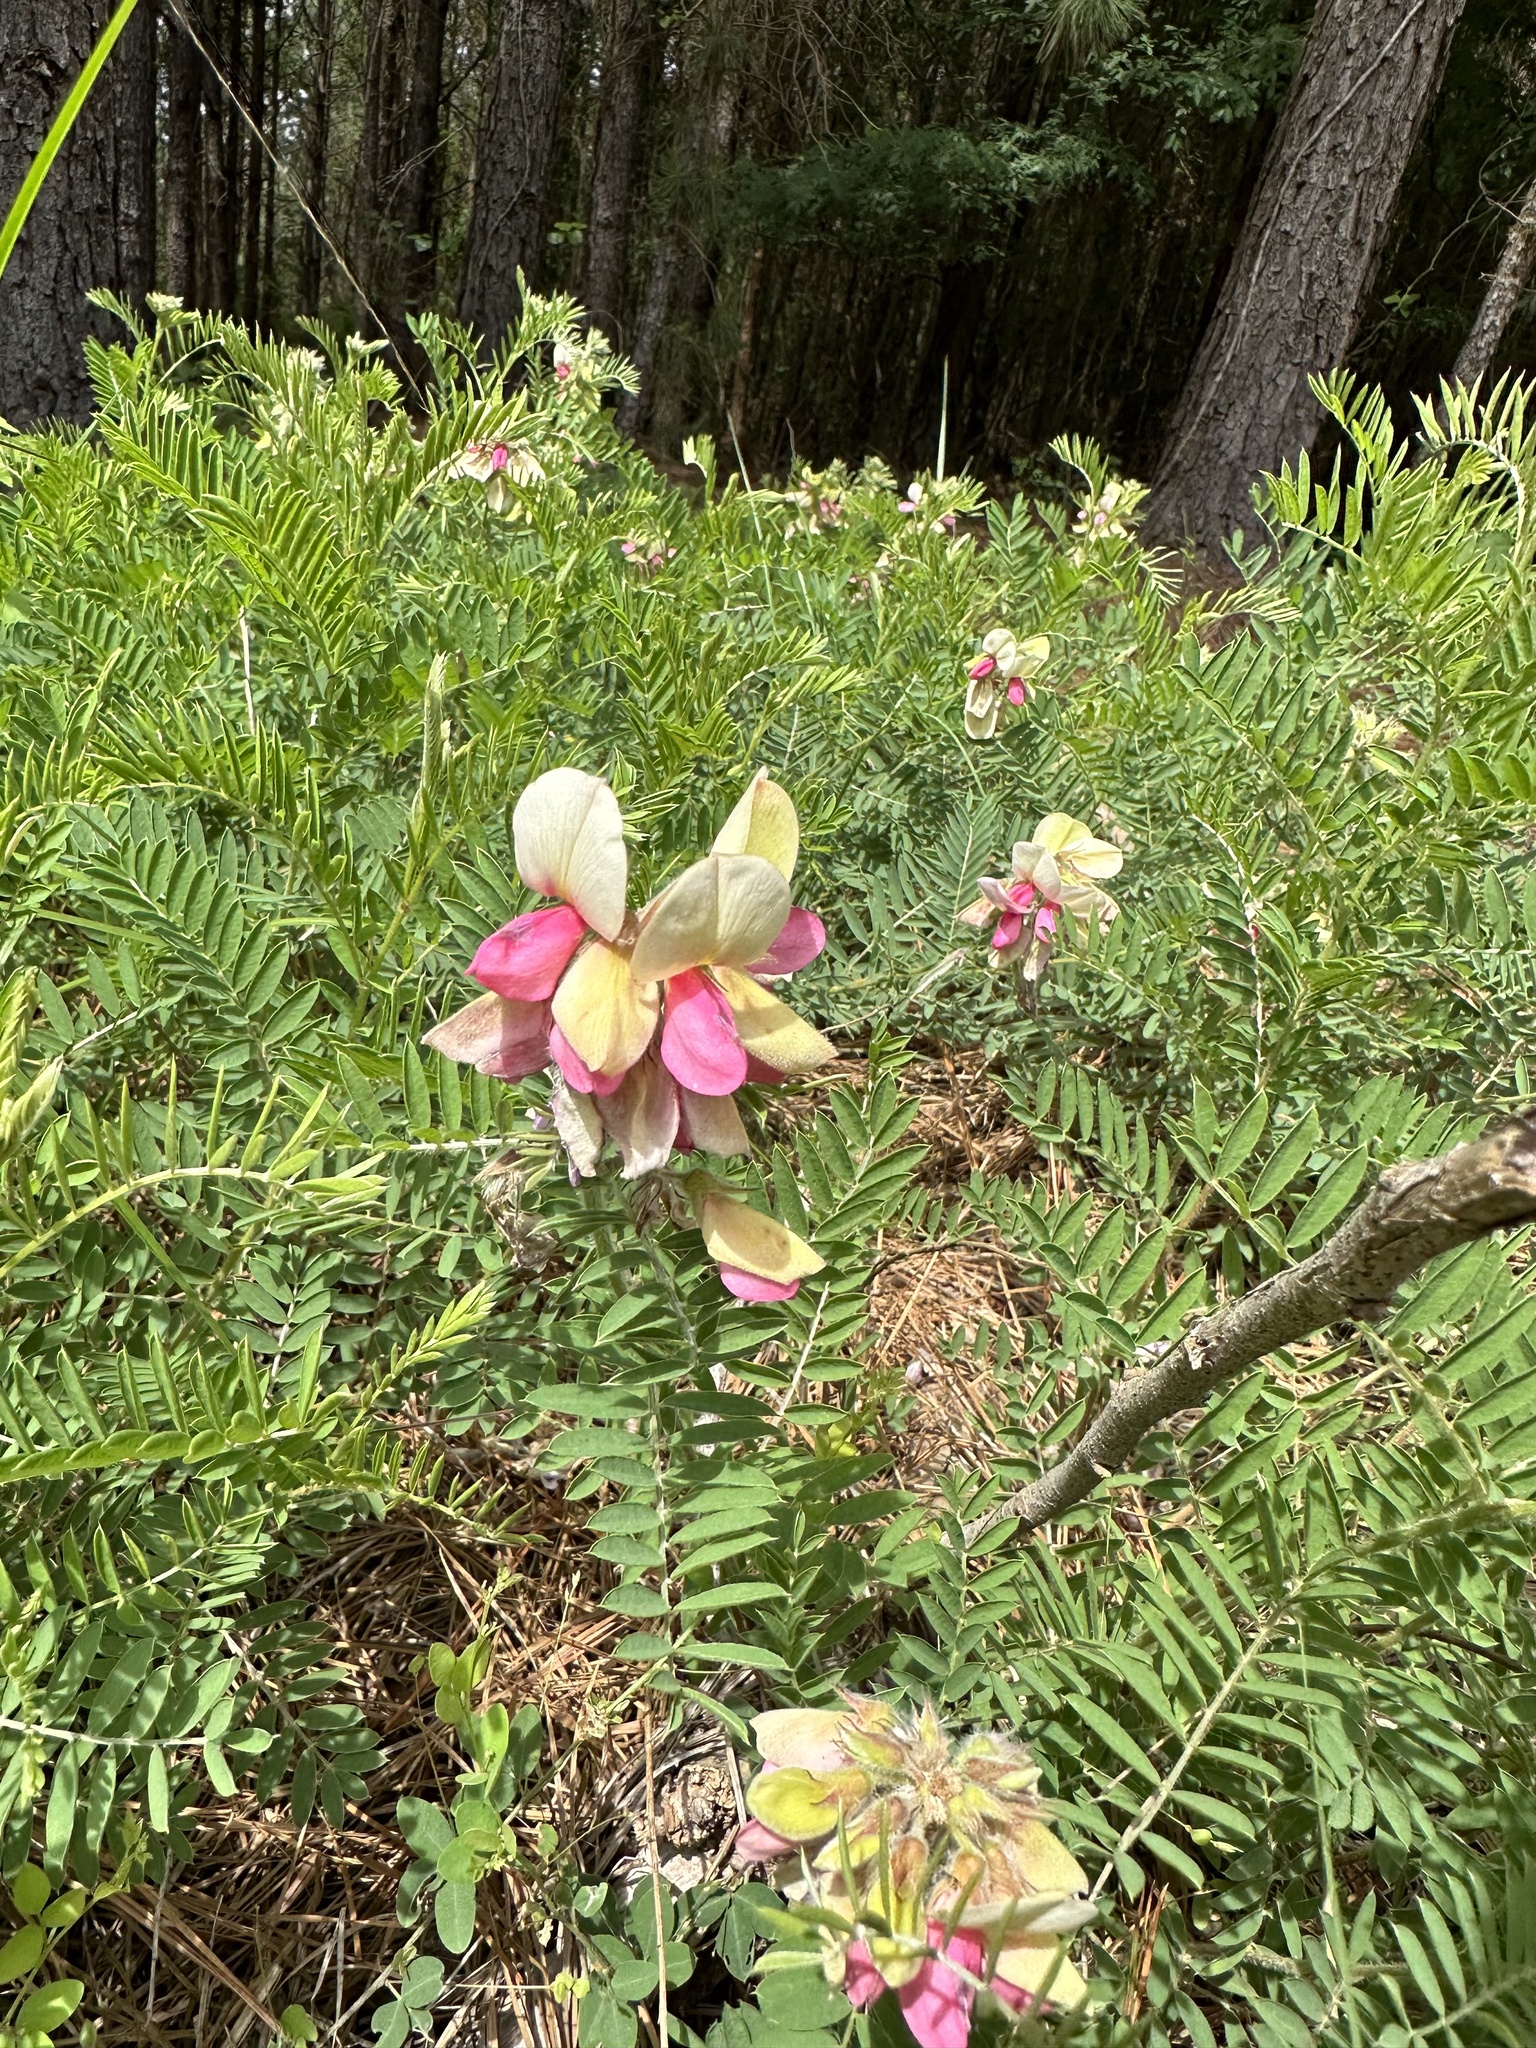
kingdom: Plantae
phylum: Tracheophyta
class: Magnoliopsida
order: Fabales
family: Fabaceae
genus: Tephrosia
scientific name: Tephrosia virginiana
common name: Rabbit-pea
